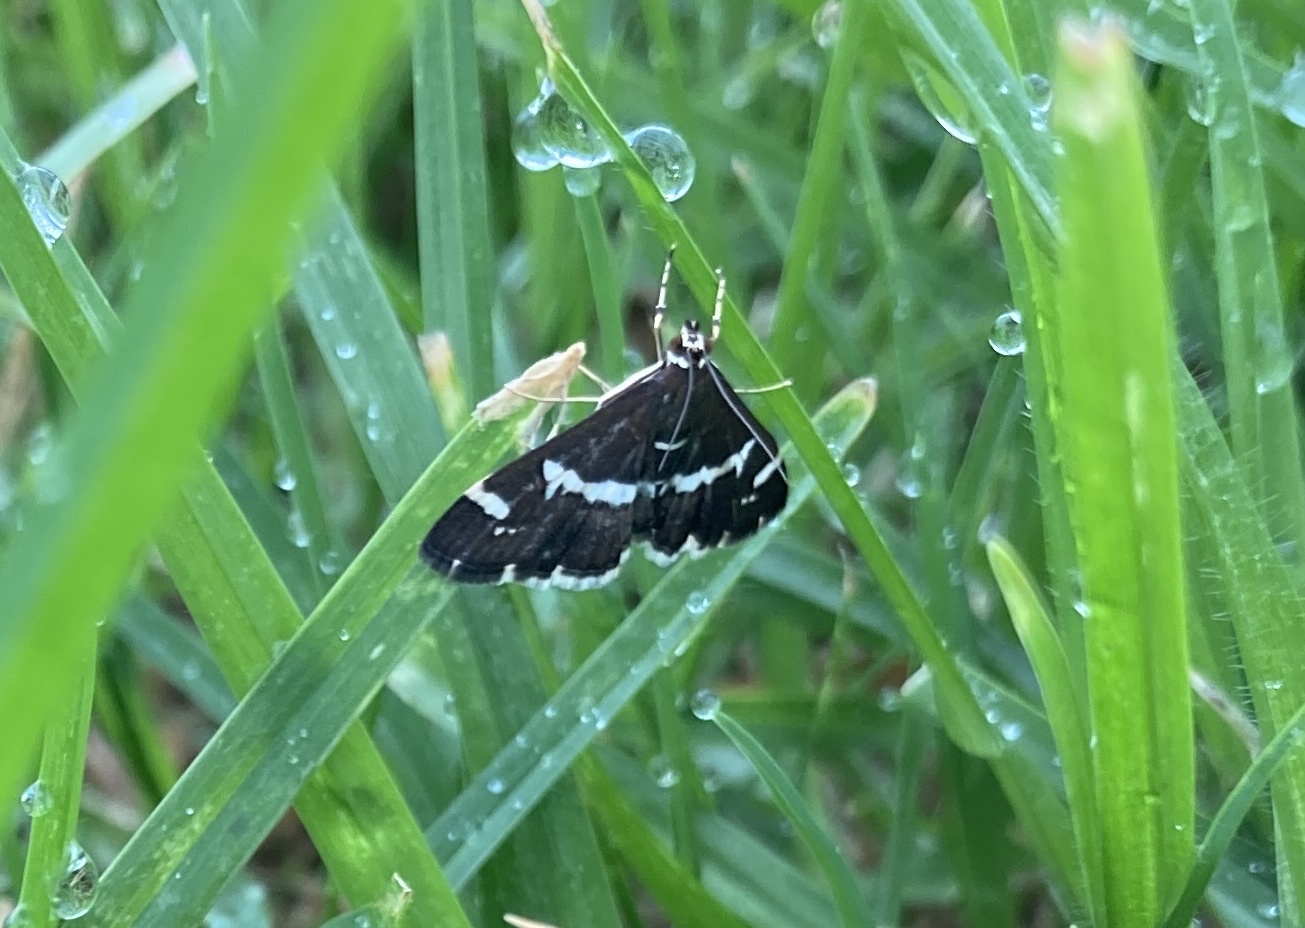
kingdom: Animalia
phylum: Arthropoda
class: Insecta
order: Lepidoptera
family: Crambidae
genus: Spoladea
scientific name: Spoladea recurvalis
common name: Beet webworm moth
